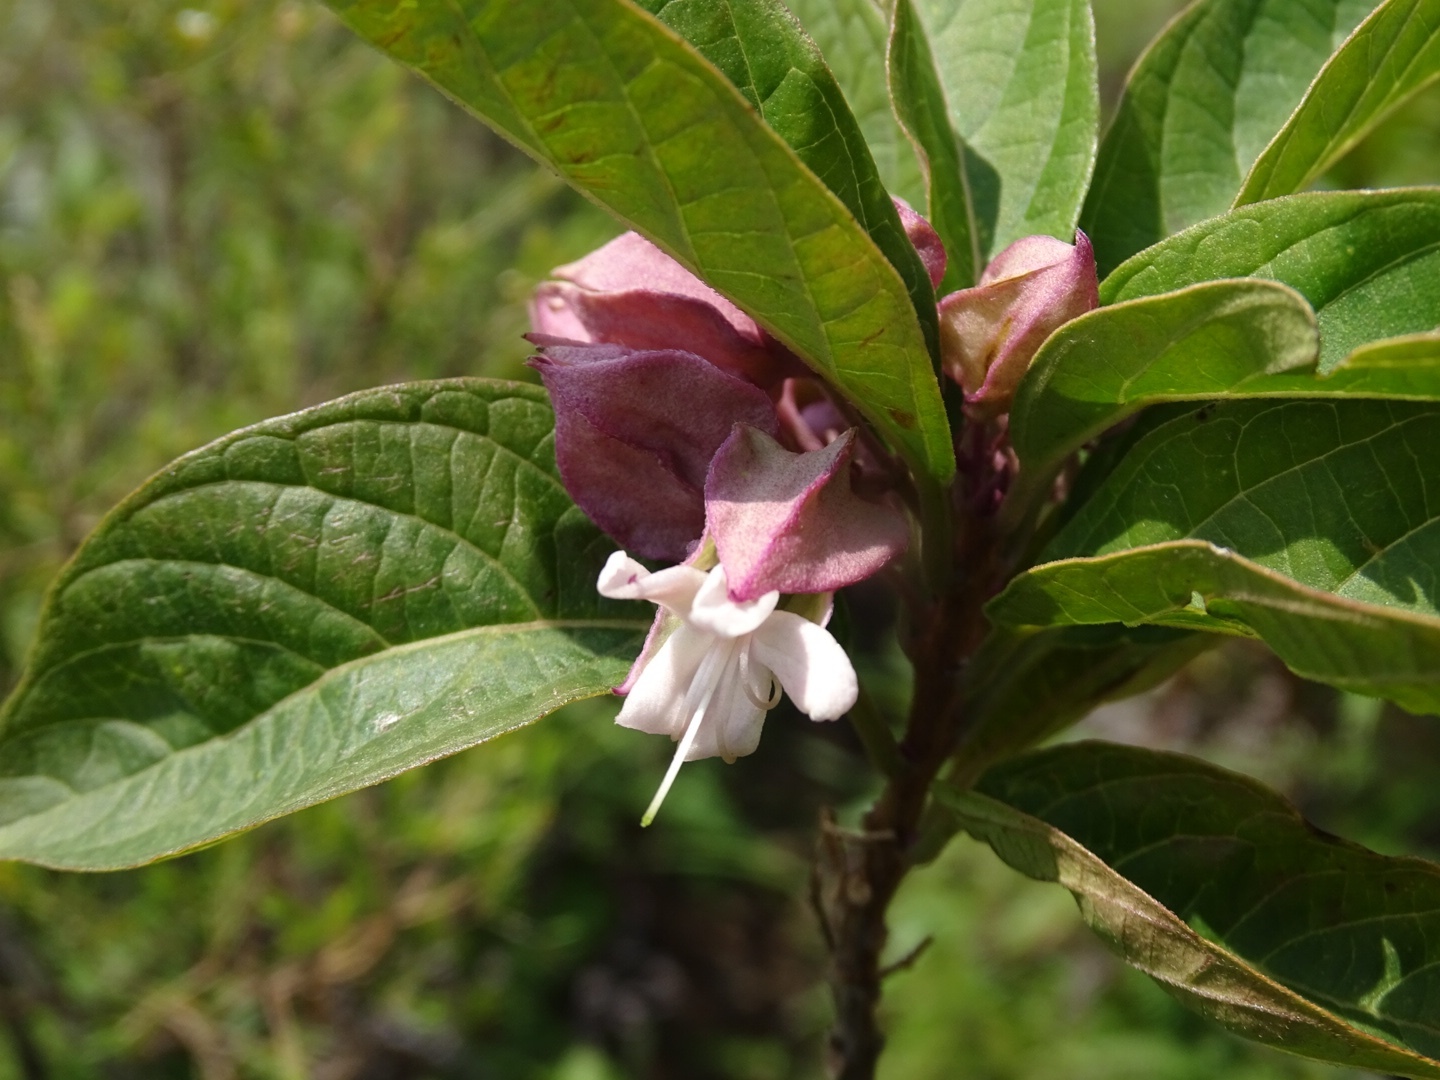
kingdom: Plantae
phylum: Tracheophyta
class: Magnoliopsida
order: Lamiales
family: Lamiaceae
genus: Clerodendrum
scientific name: Clerodendrum fortunatum
